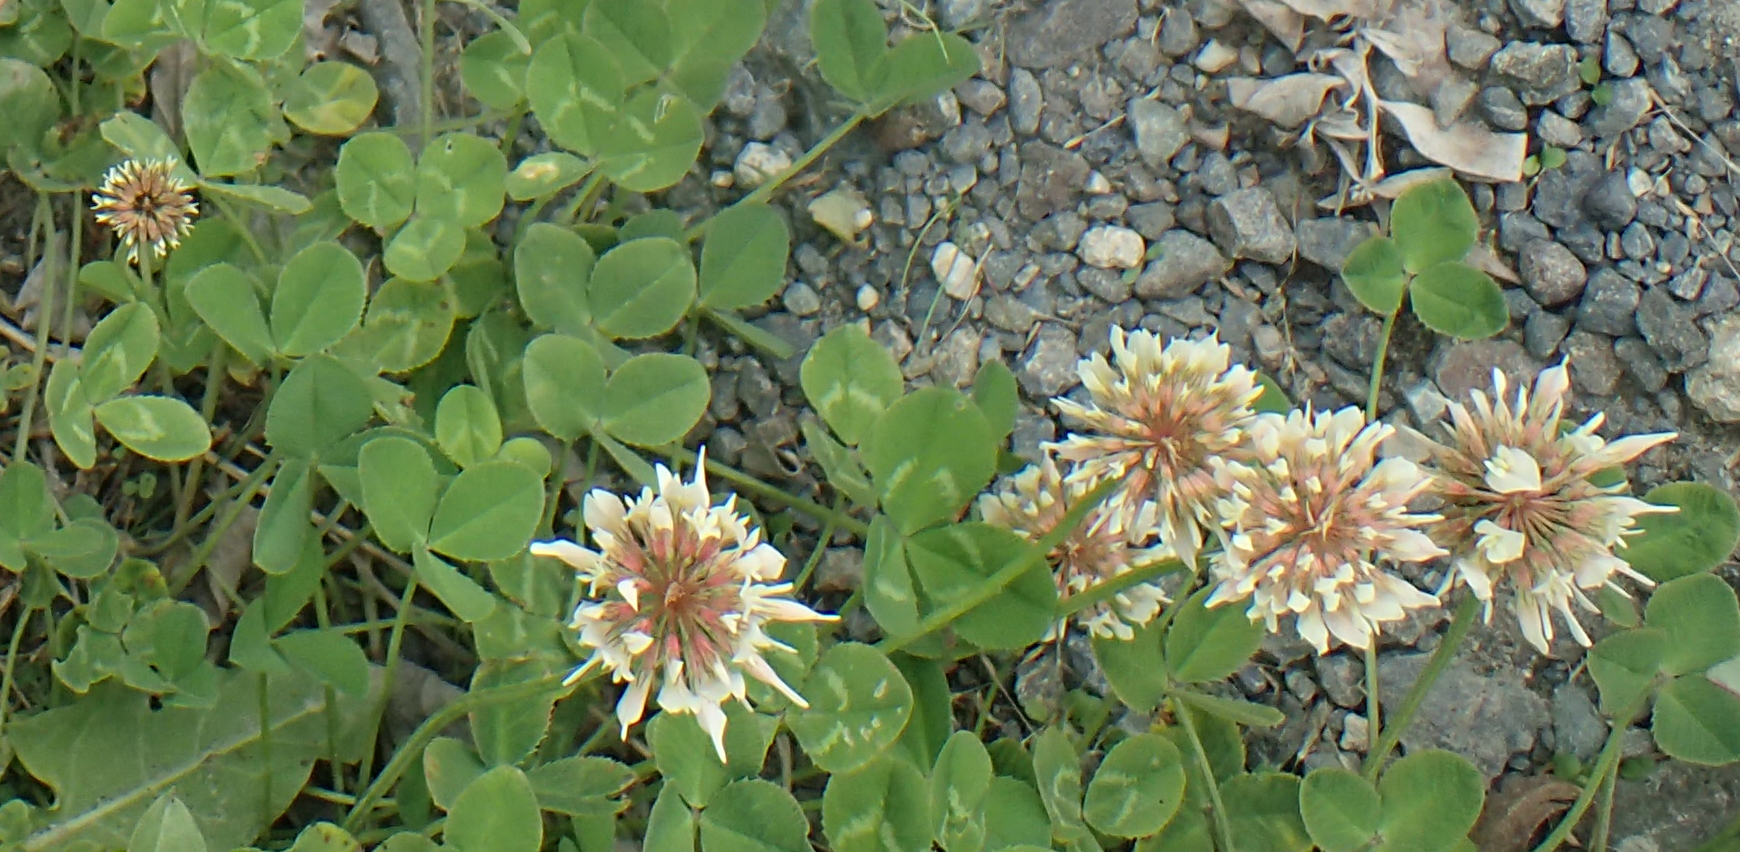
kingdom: Plantae
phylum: Tracheophyta
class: Magnoliopsida
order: Fabales
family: Fabaceae
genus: Trifolium
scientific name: Trifolium repens
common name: White clover
